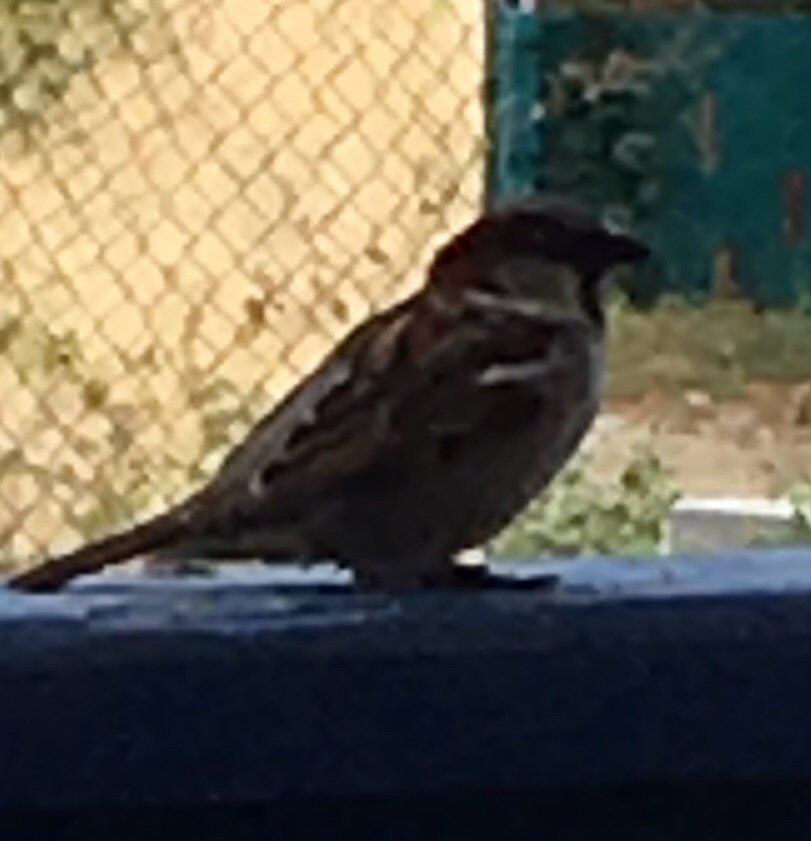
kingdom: Animalia
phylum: Chordata
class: Aves
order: Passeriformes
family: Passeridae
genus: Passer
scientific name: Passer domesticus
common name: House sparrow
